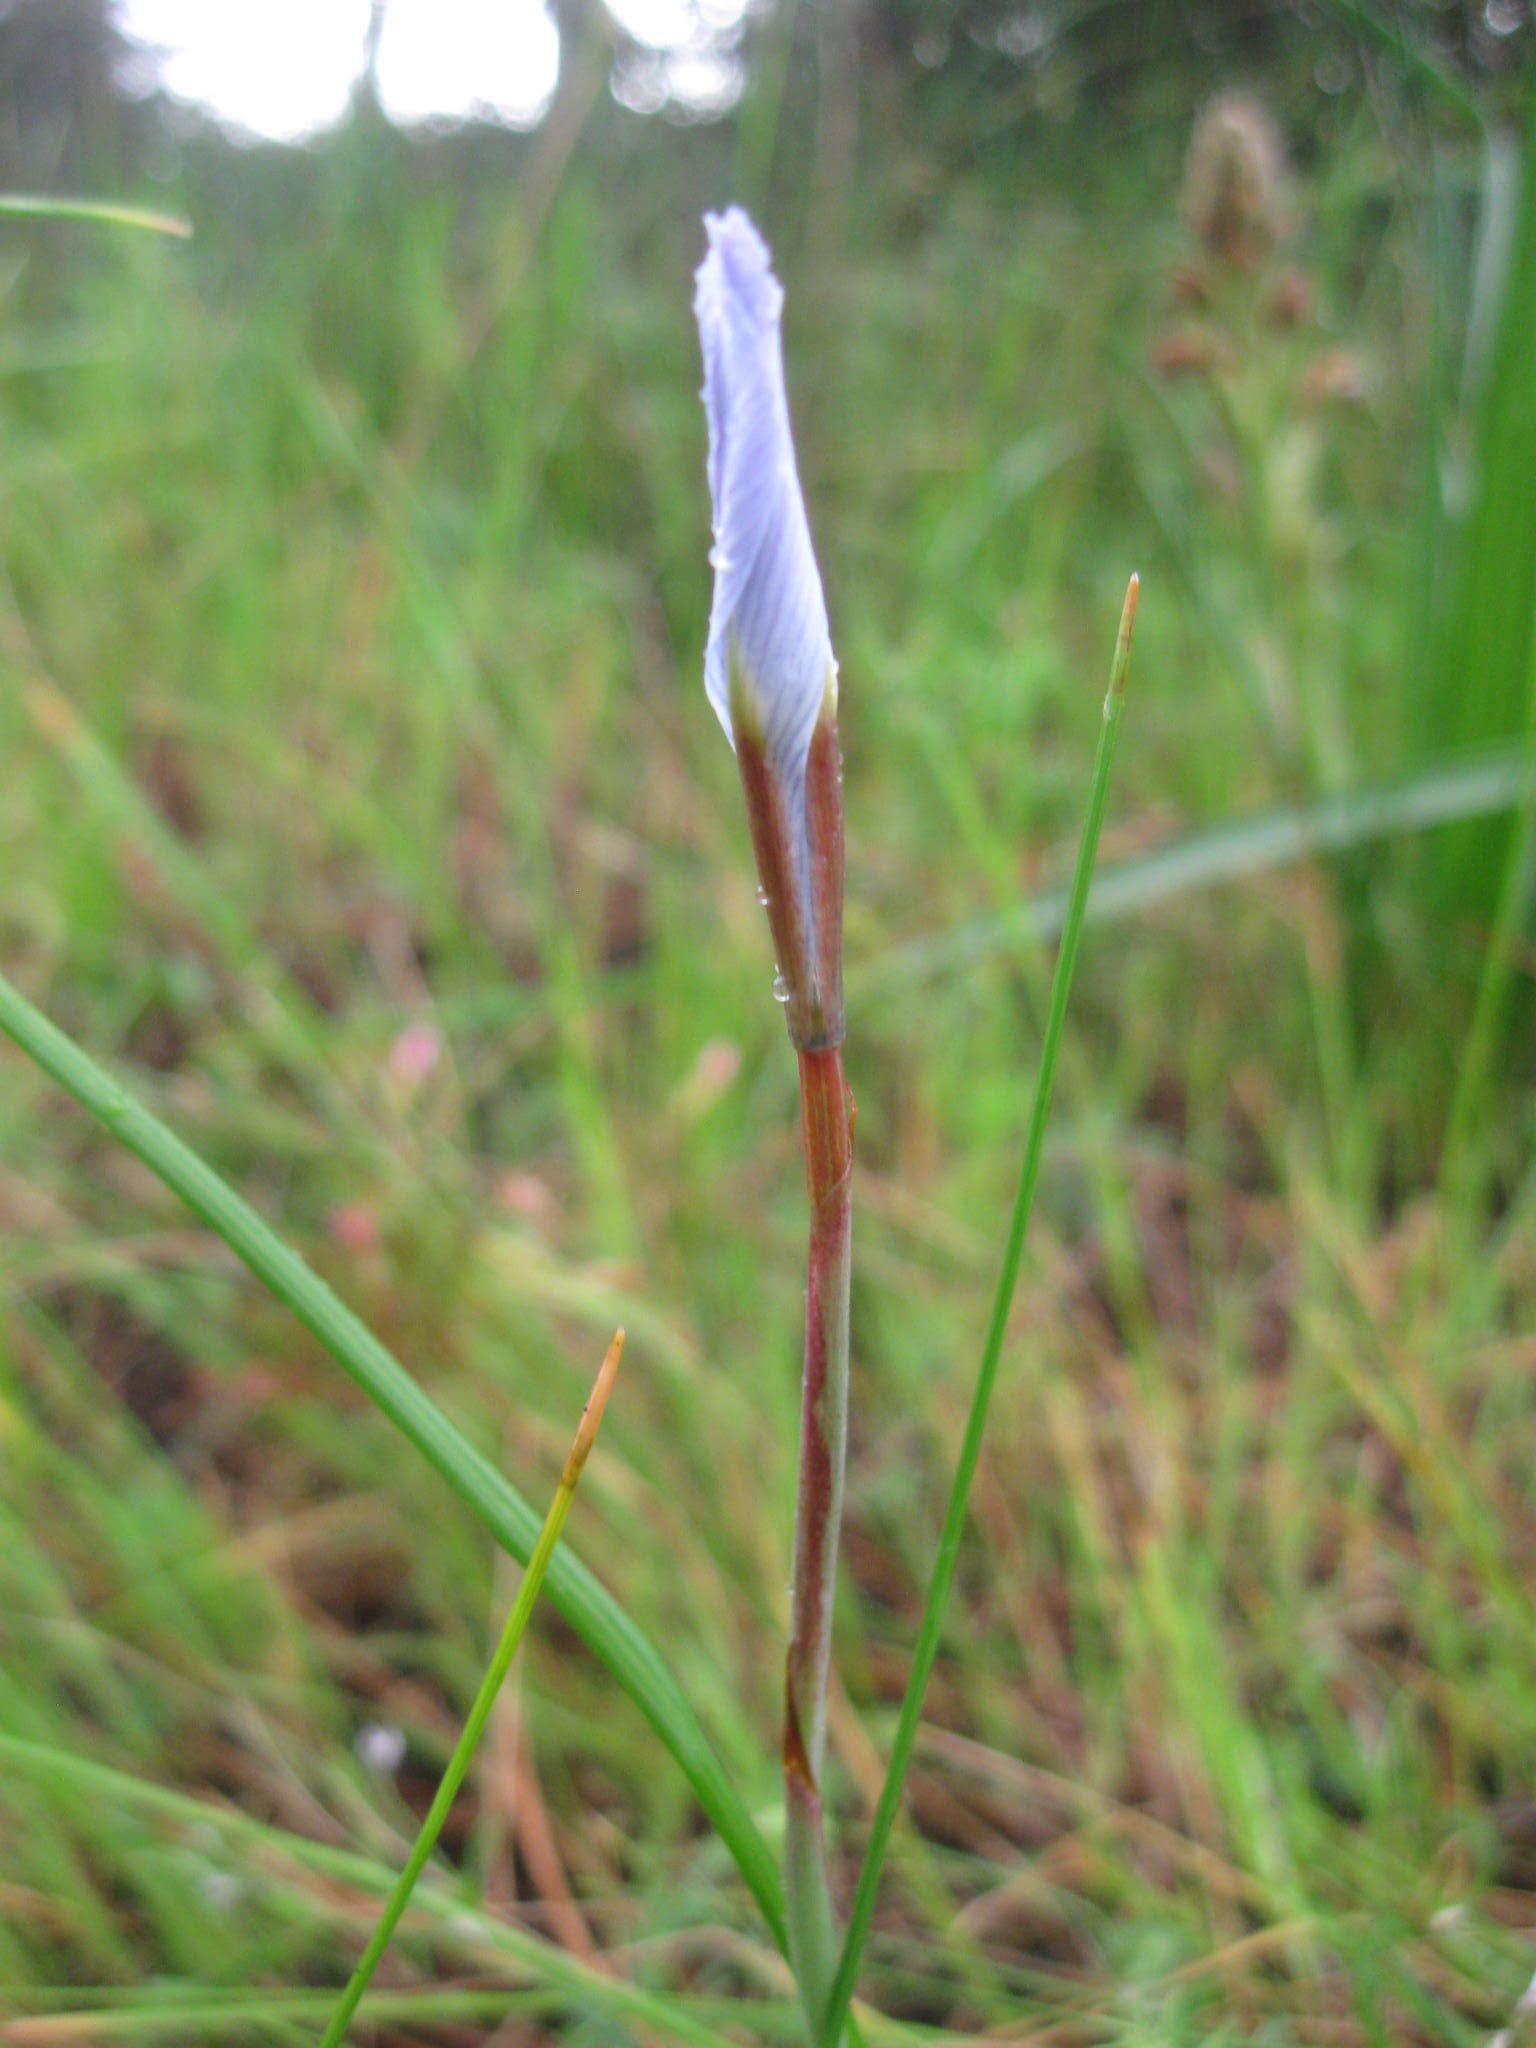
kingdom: Plantae
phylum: Tracheophyta
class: Liliopsida
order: Asparagales
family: Iridaceae
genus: Moraea
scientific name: Moraea tripetala
